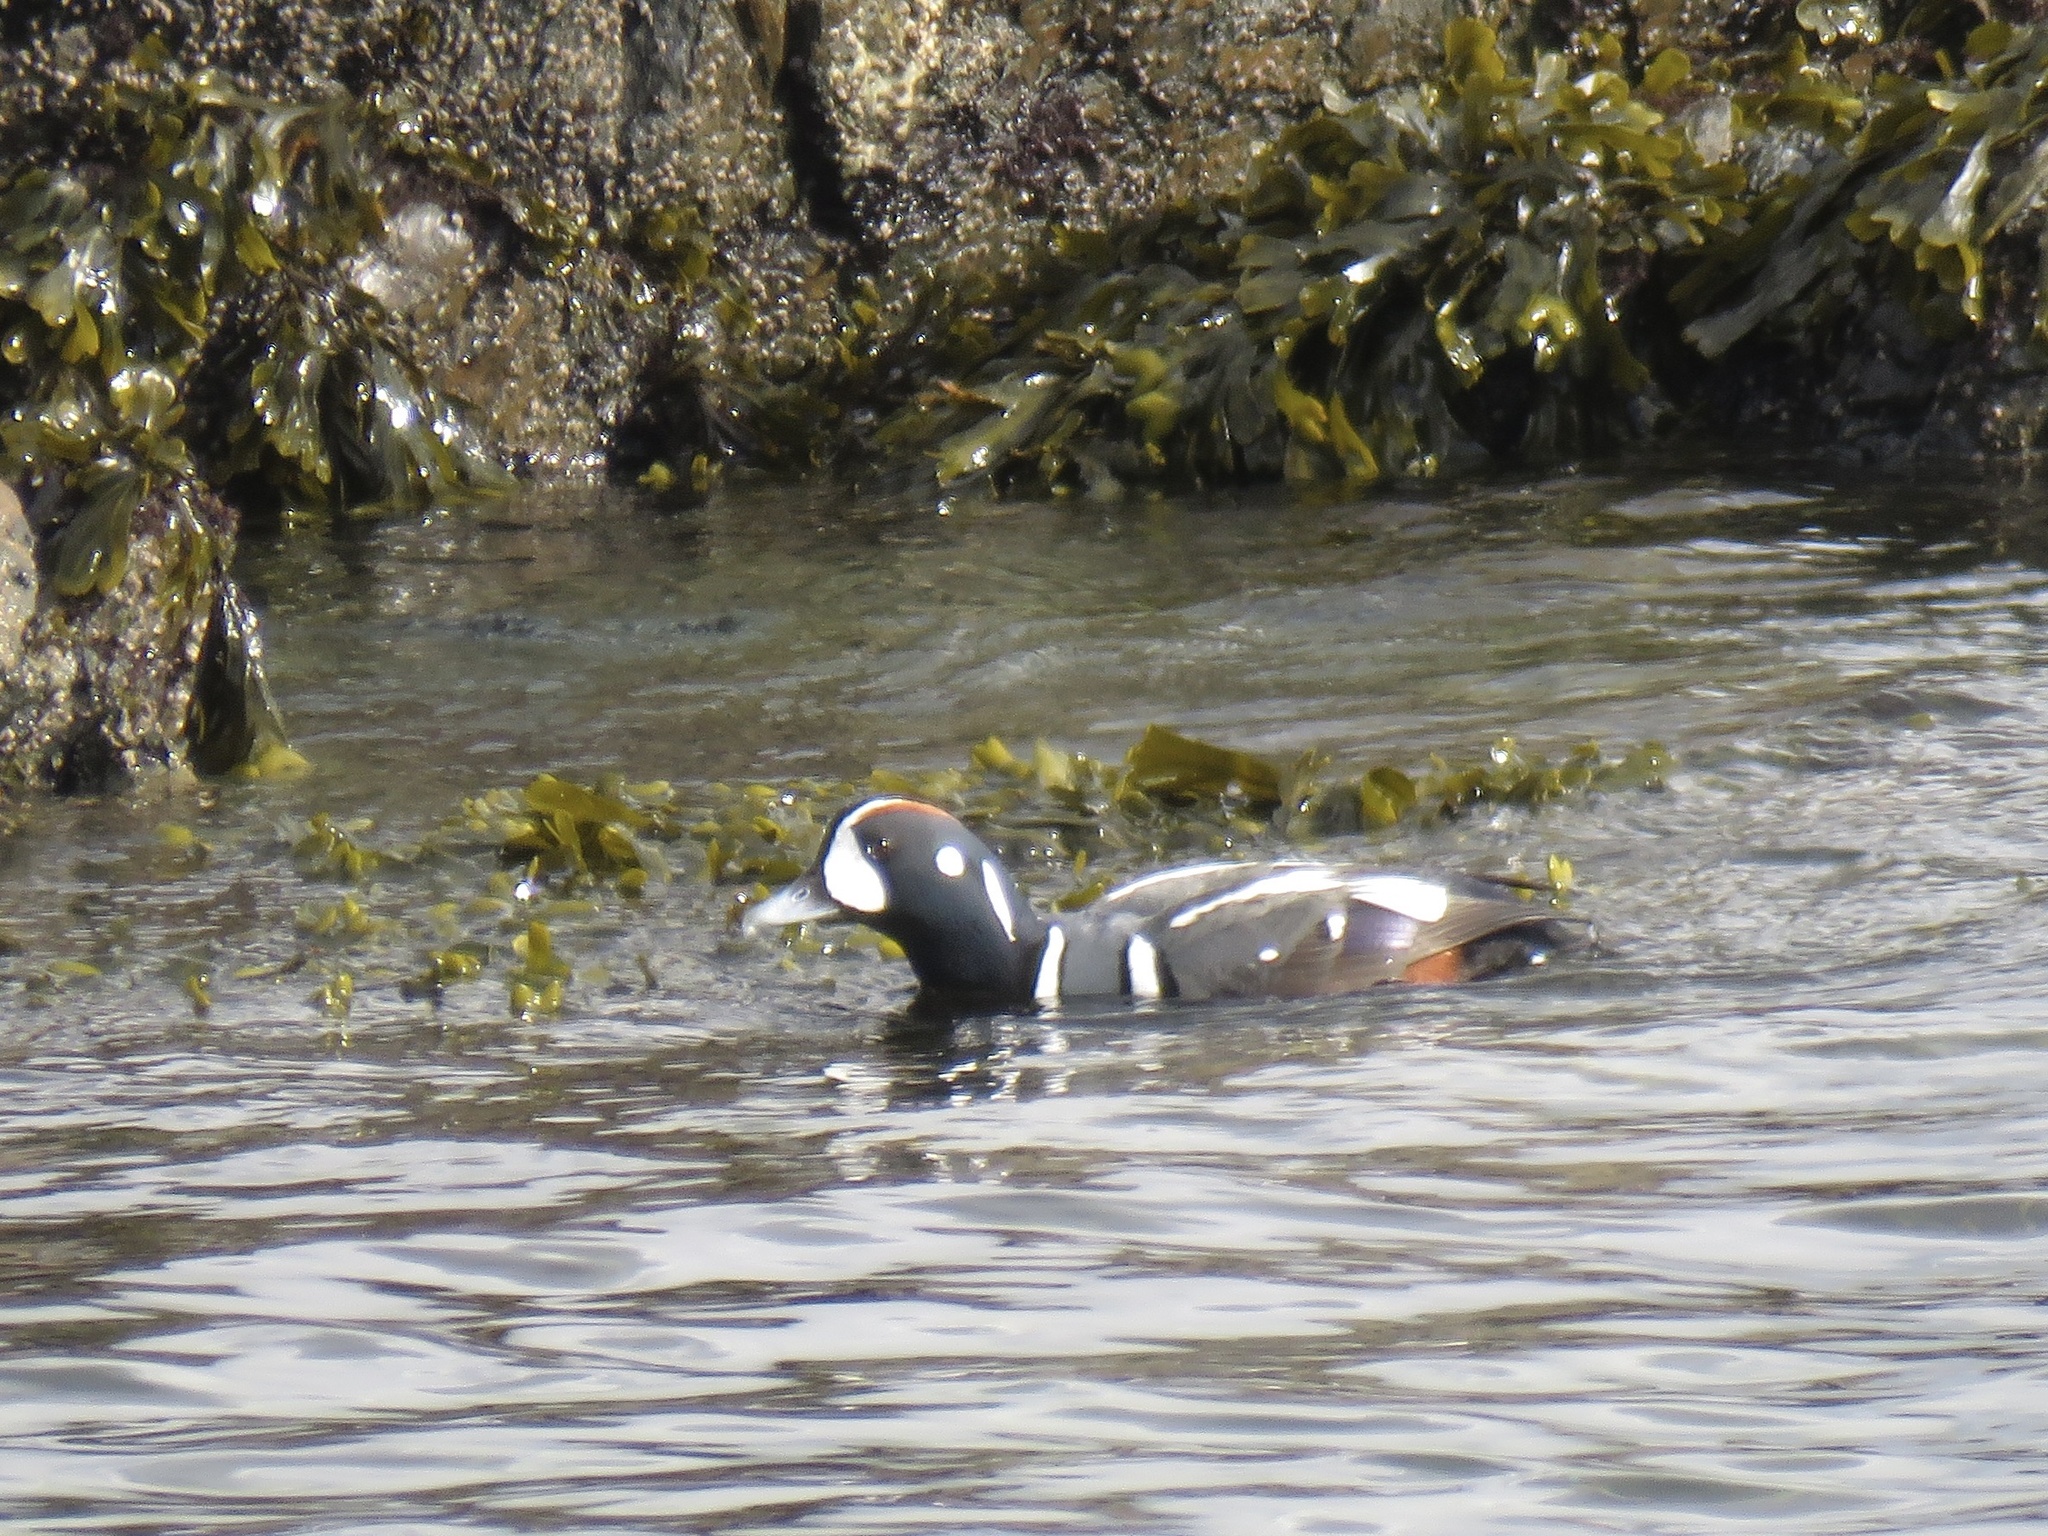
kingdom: Animalia
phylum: Chordata
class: Aves
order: Anseriformes
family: Anatidae
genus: Histrionicus
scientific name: Histrionicus histrionicus
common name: Harlequin duck
